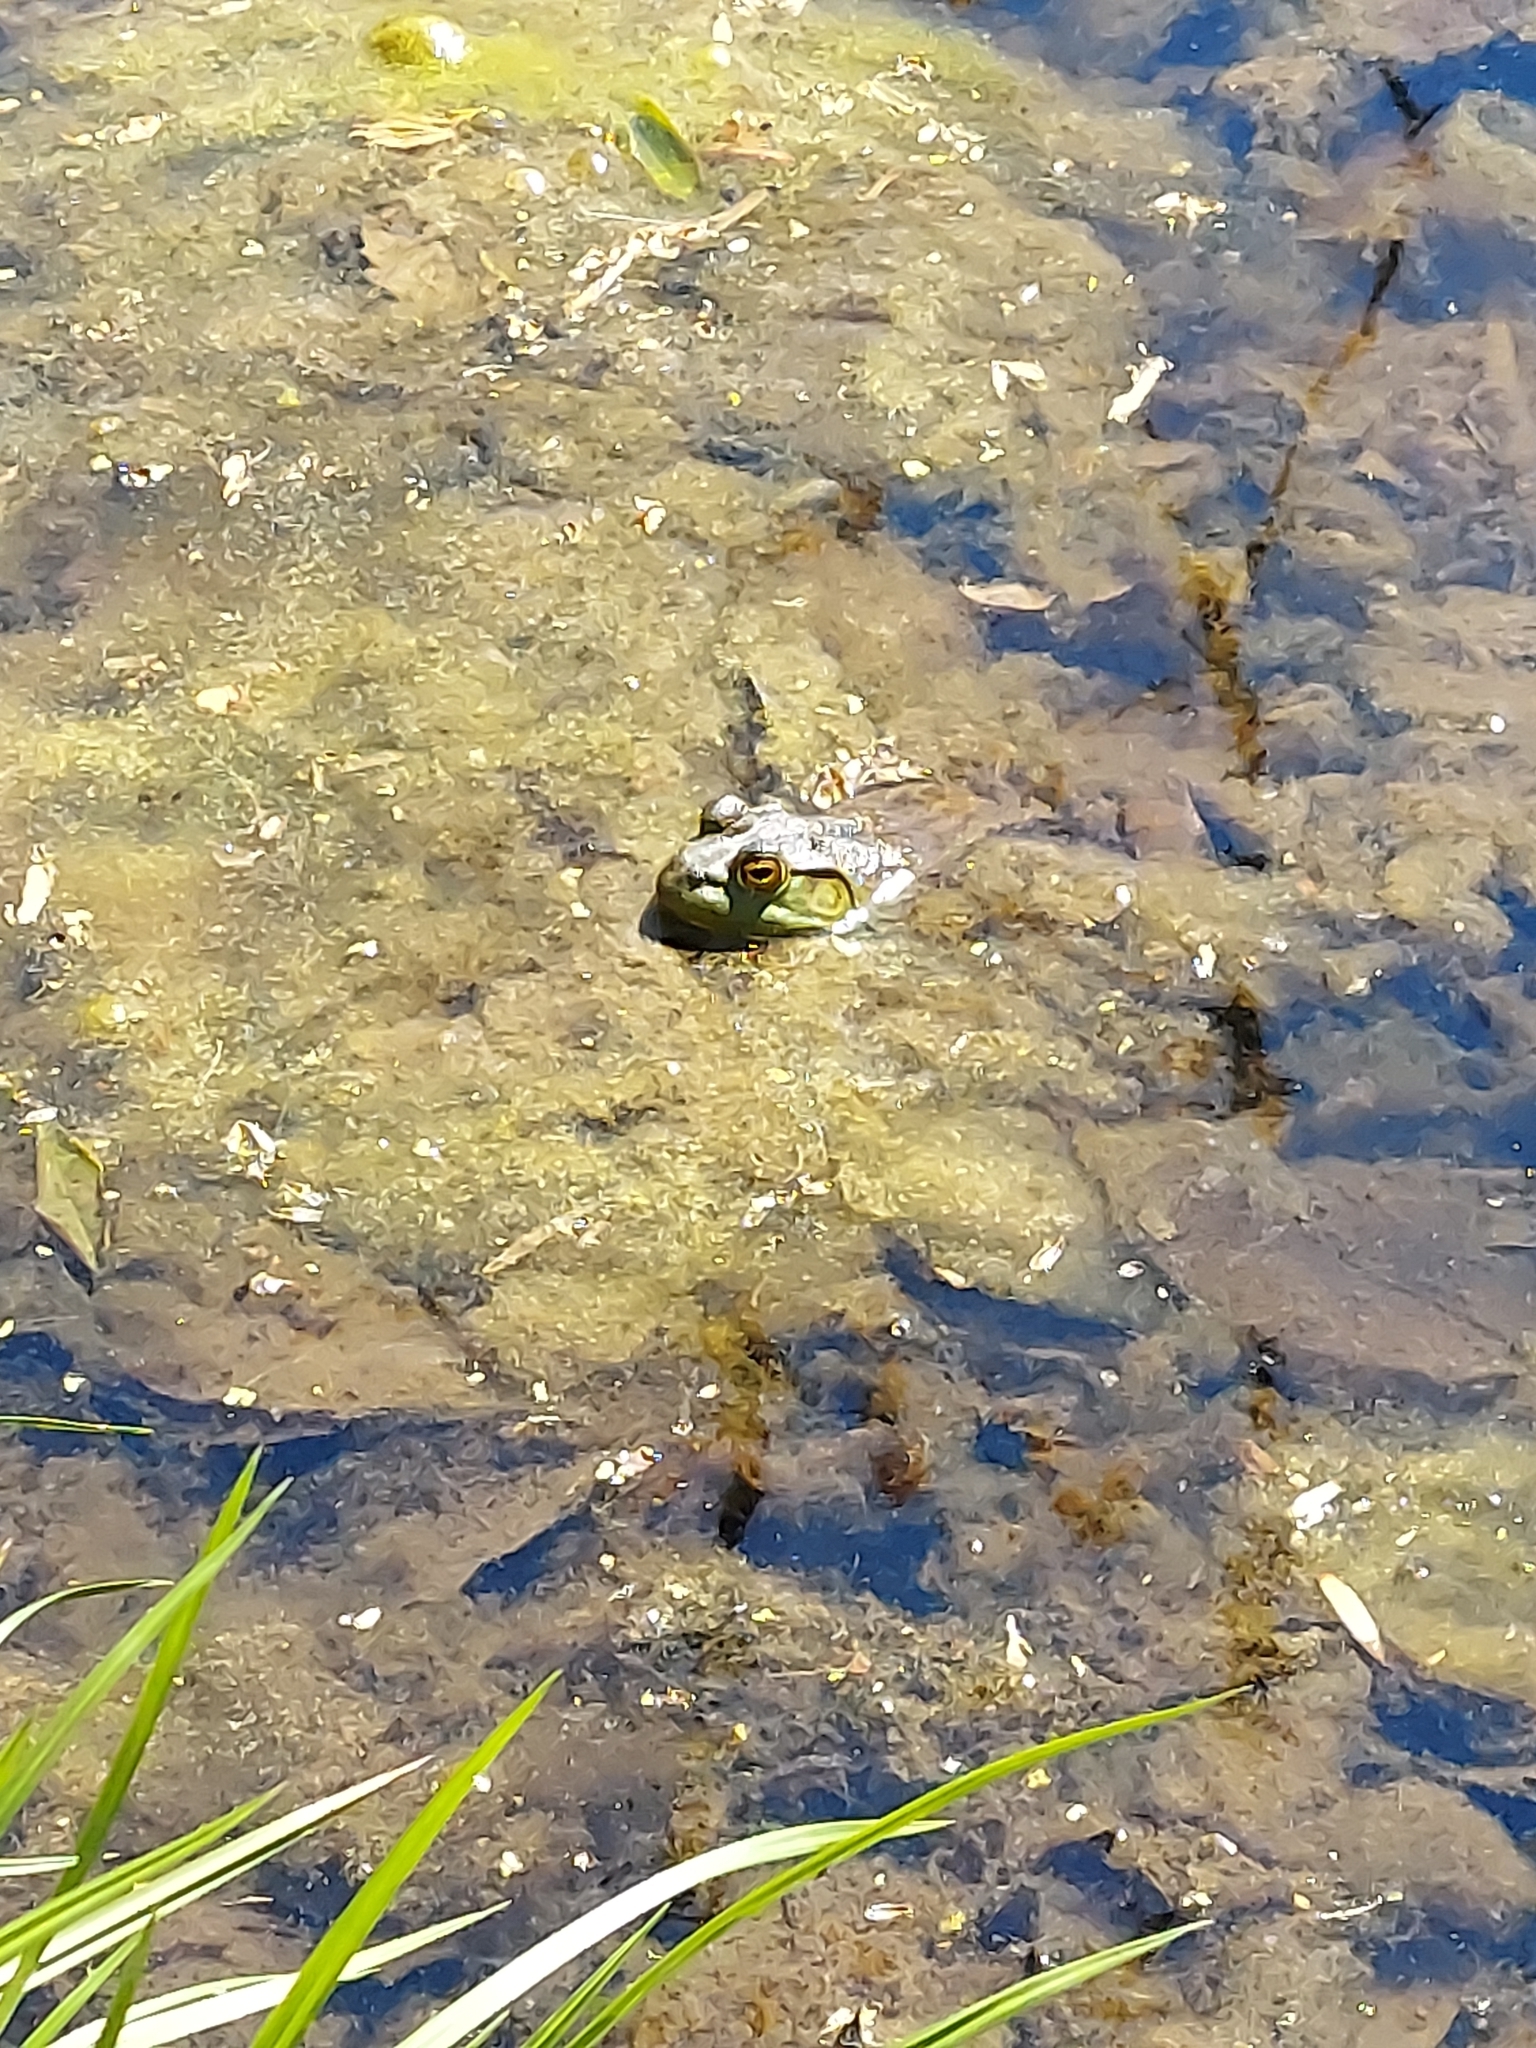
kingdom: Animalia
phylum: Chordata
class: Amphibia
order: Anura
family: Ranidae
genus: Lithobates
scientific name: Lithobates catesbeianus
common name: American bullfrog
